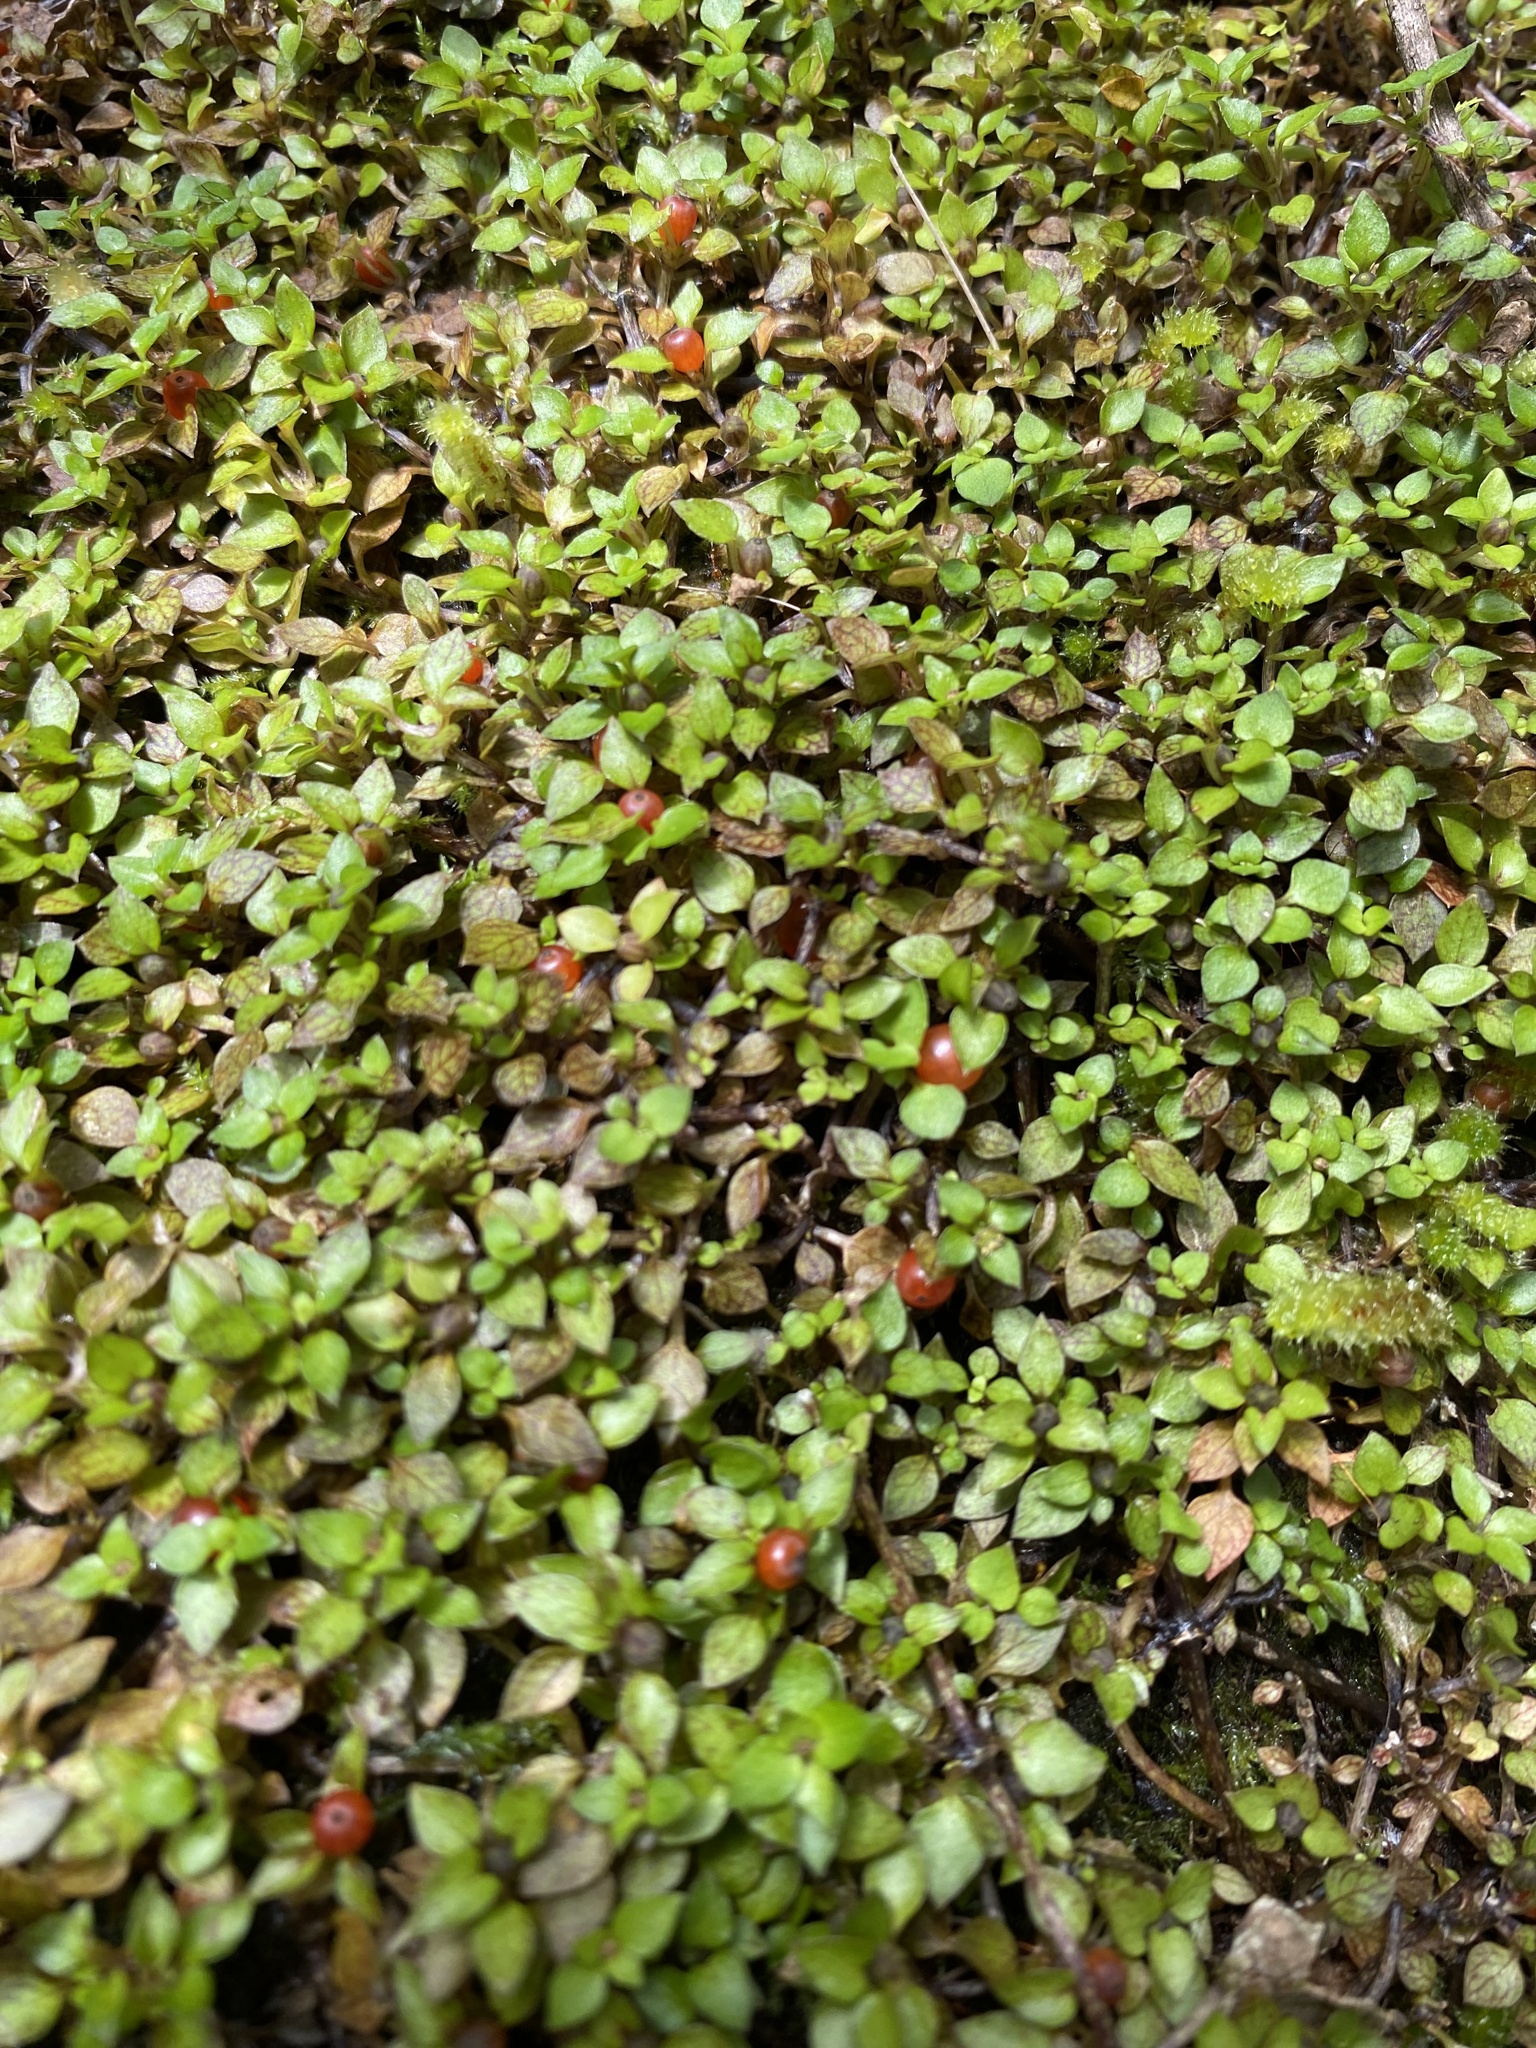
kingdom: Plantae
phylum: Tracheophyta
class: Magnoliopsida
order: Gentianales
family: Rubiaceae
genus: Nertera
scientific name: Nertera granadensis
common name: Beadplant
